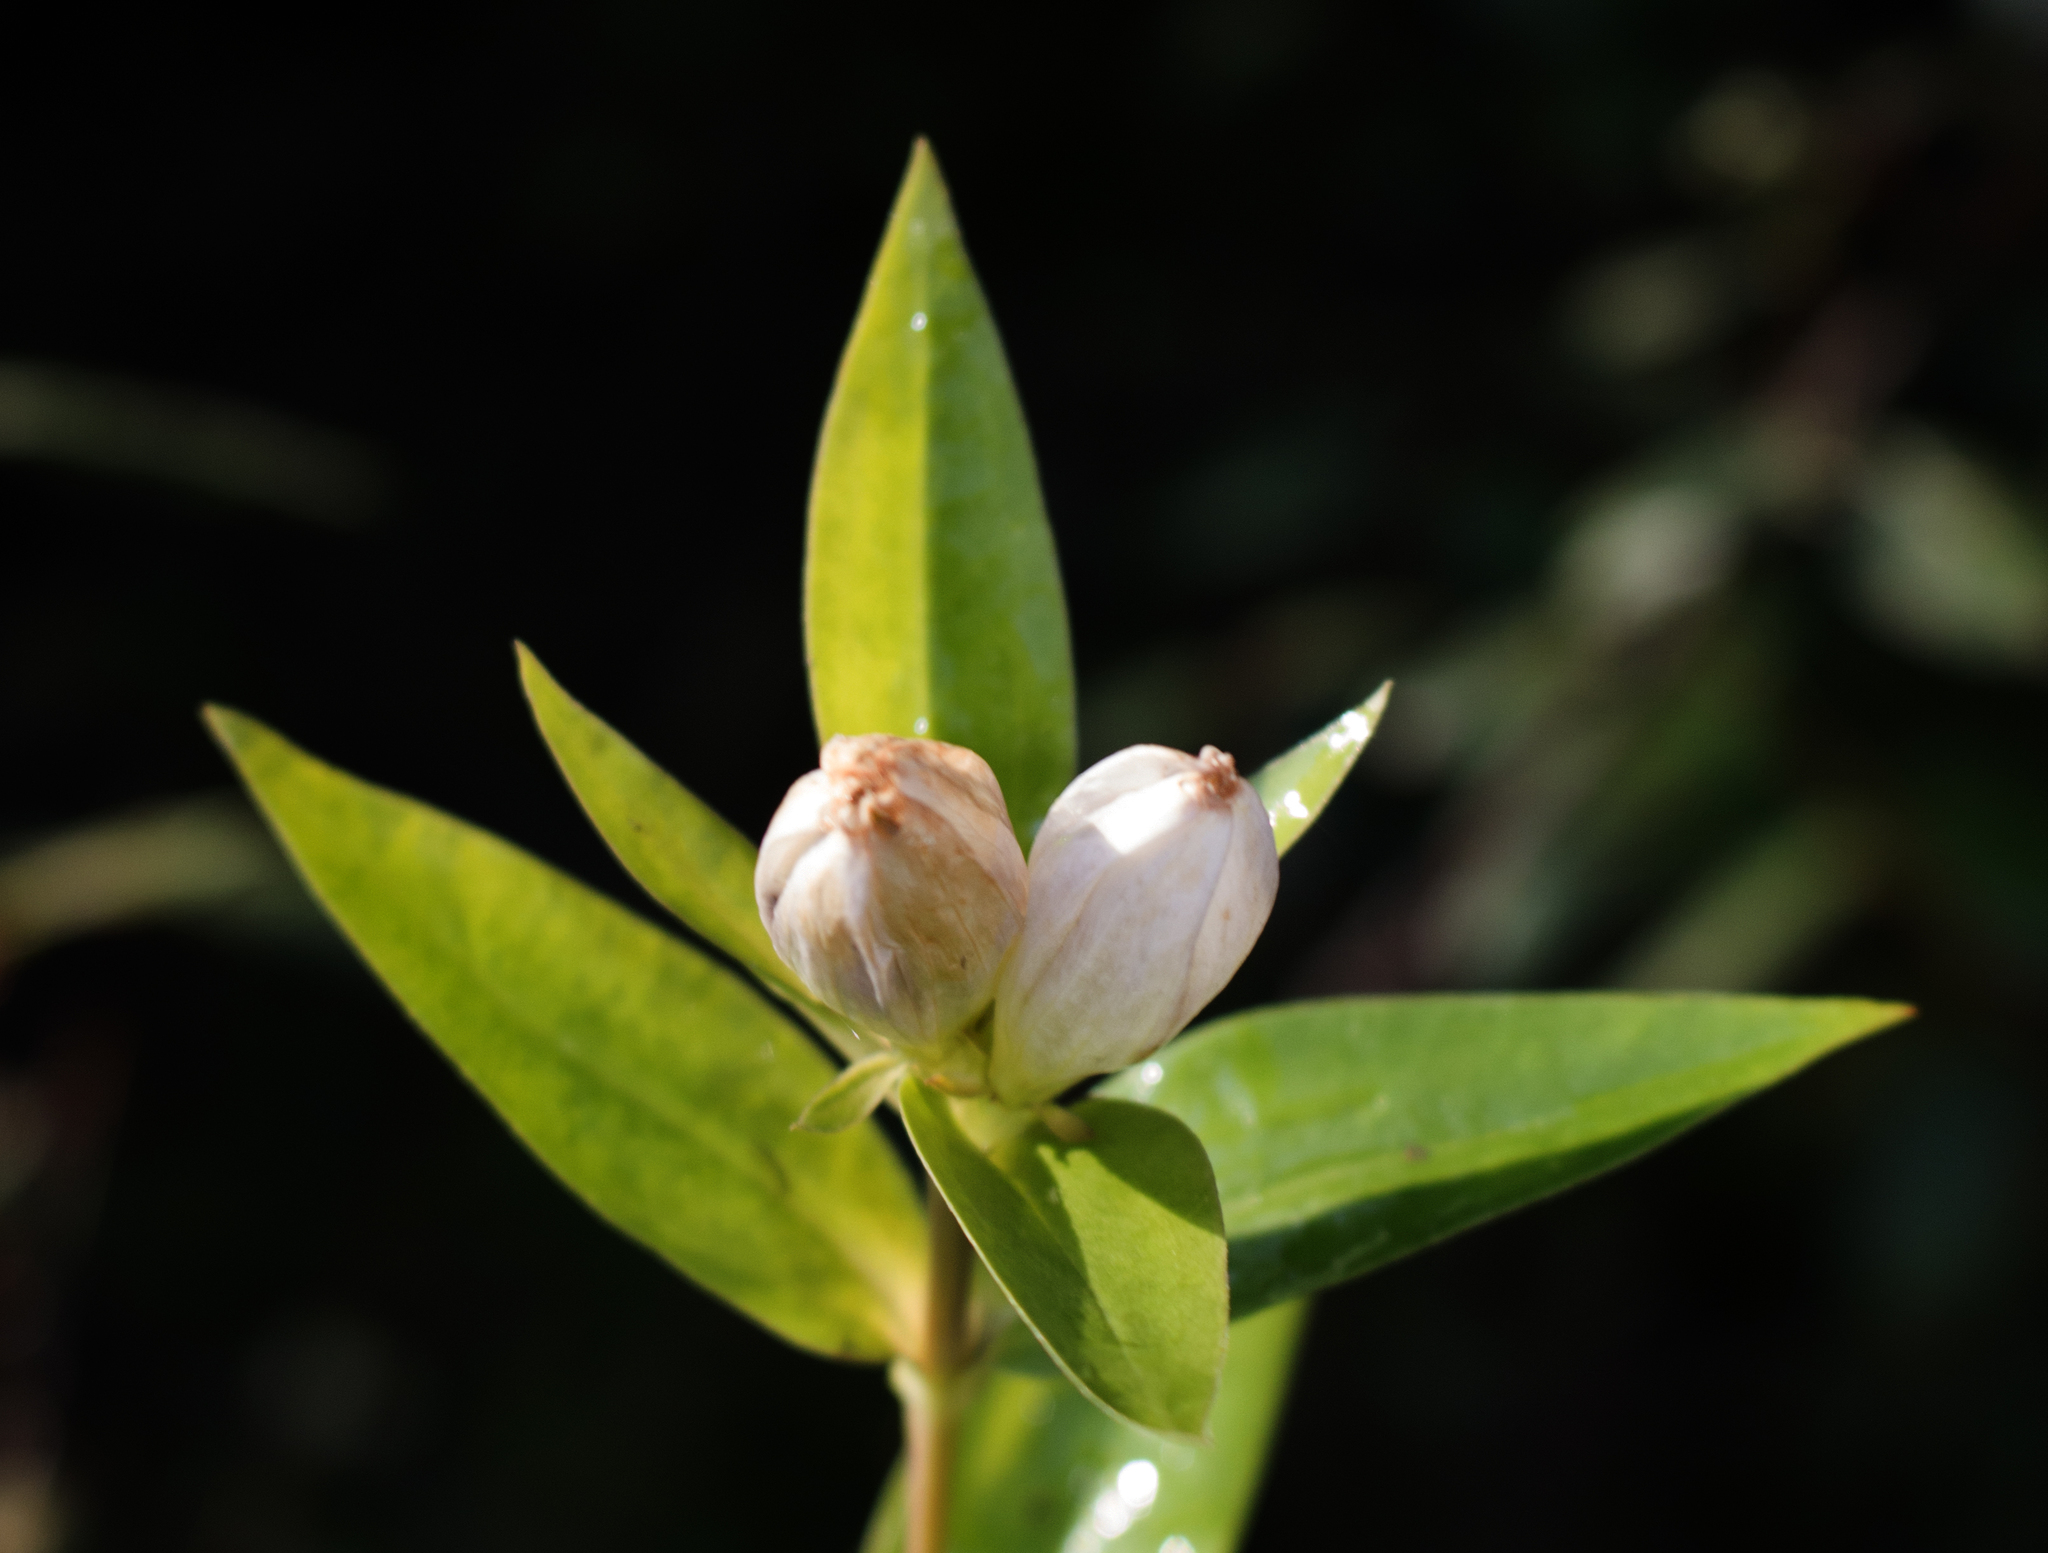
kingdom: Plantae
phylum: Tracheophyta
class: Magnoliopsida
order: Gentianales
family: Gentianaceae
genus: Gentiana
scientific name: Gentiana andrewsii
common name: Bottle gentian
